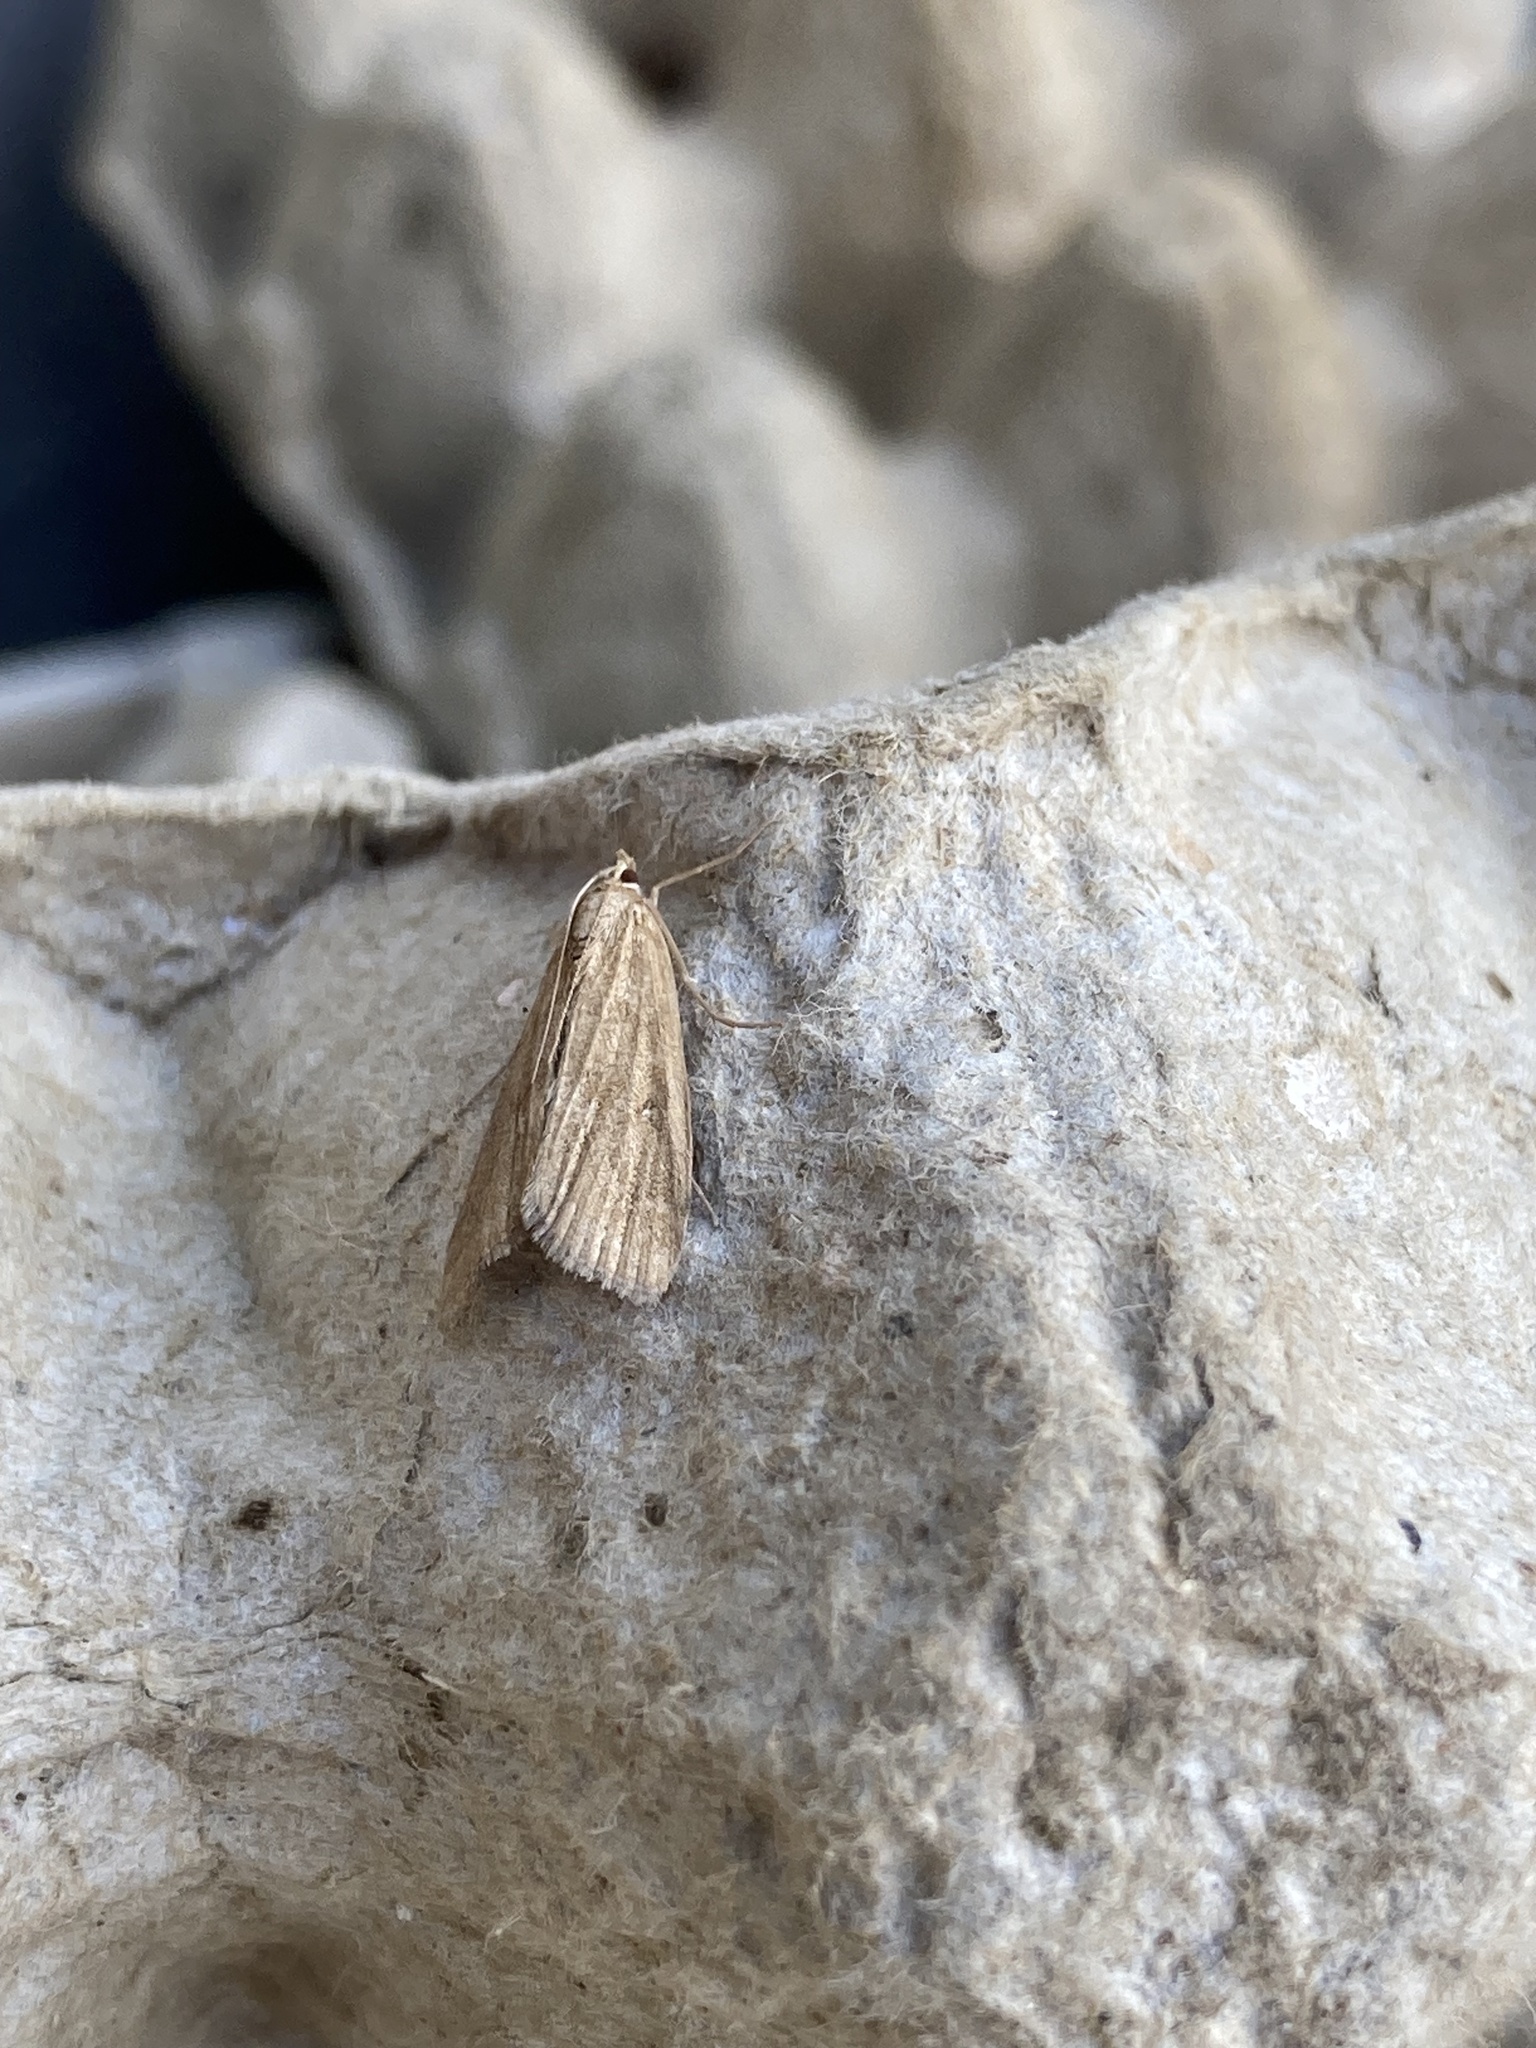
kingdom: Animalia
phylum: Arthropoda
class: Insecta
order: Lepidoptera
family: Crambidae
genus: Parapoynx
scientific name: Parapoynx stratiotata
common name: Ringed china-mark
